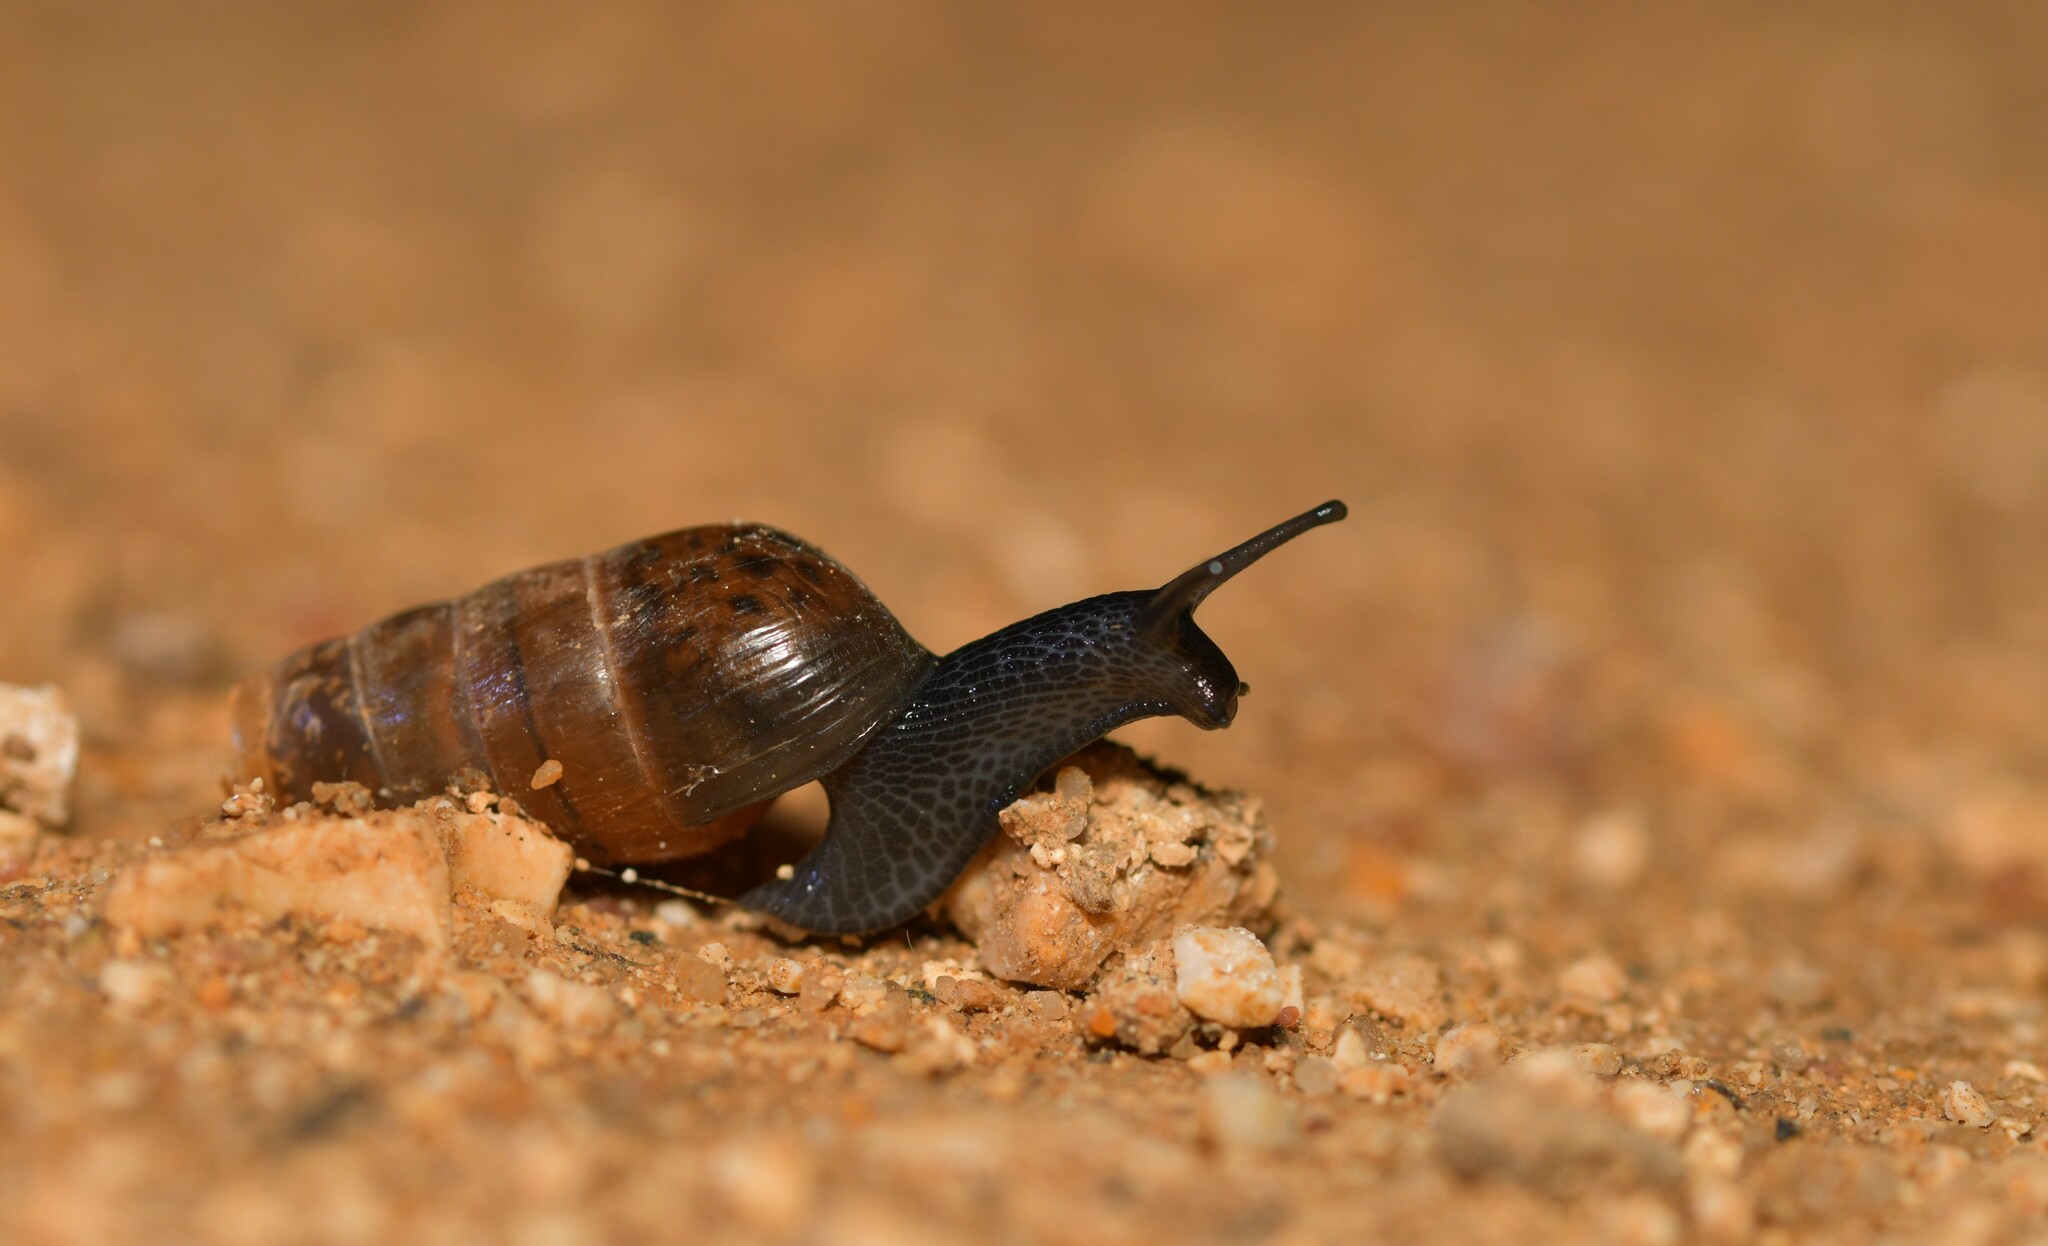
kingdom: Animalia
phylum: Mollusca
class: Gastropoda
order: Stylommatophora
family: Achatinidae
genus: Rumina
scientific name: Rumina decollata
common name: Decollate snail
